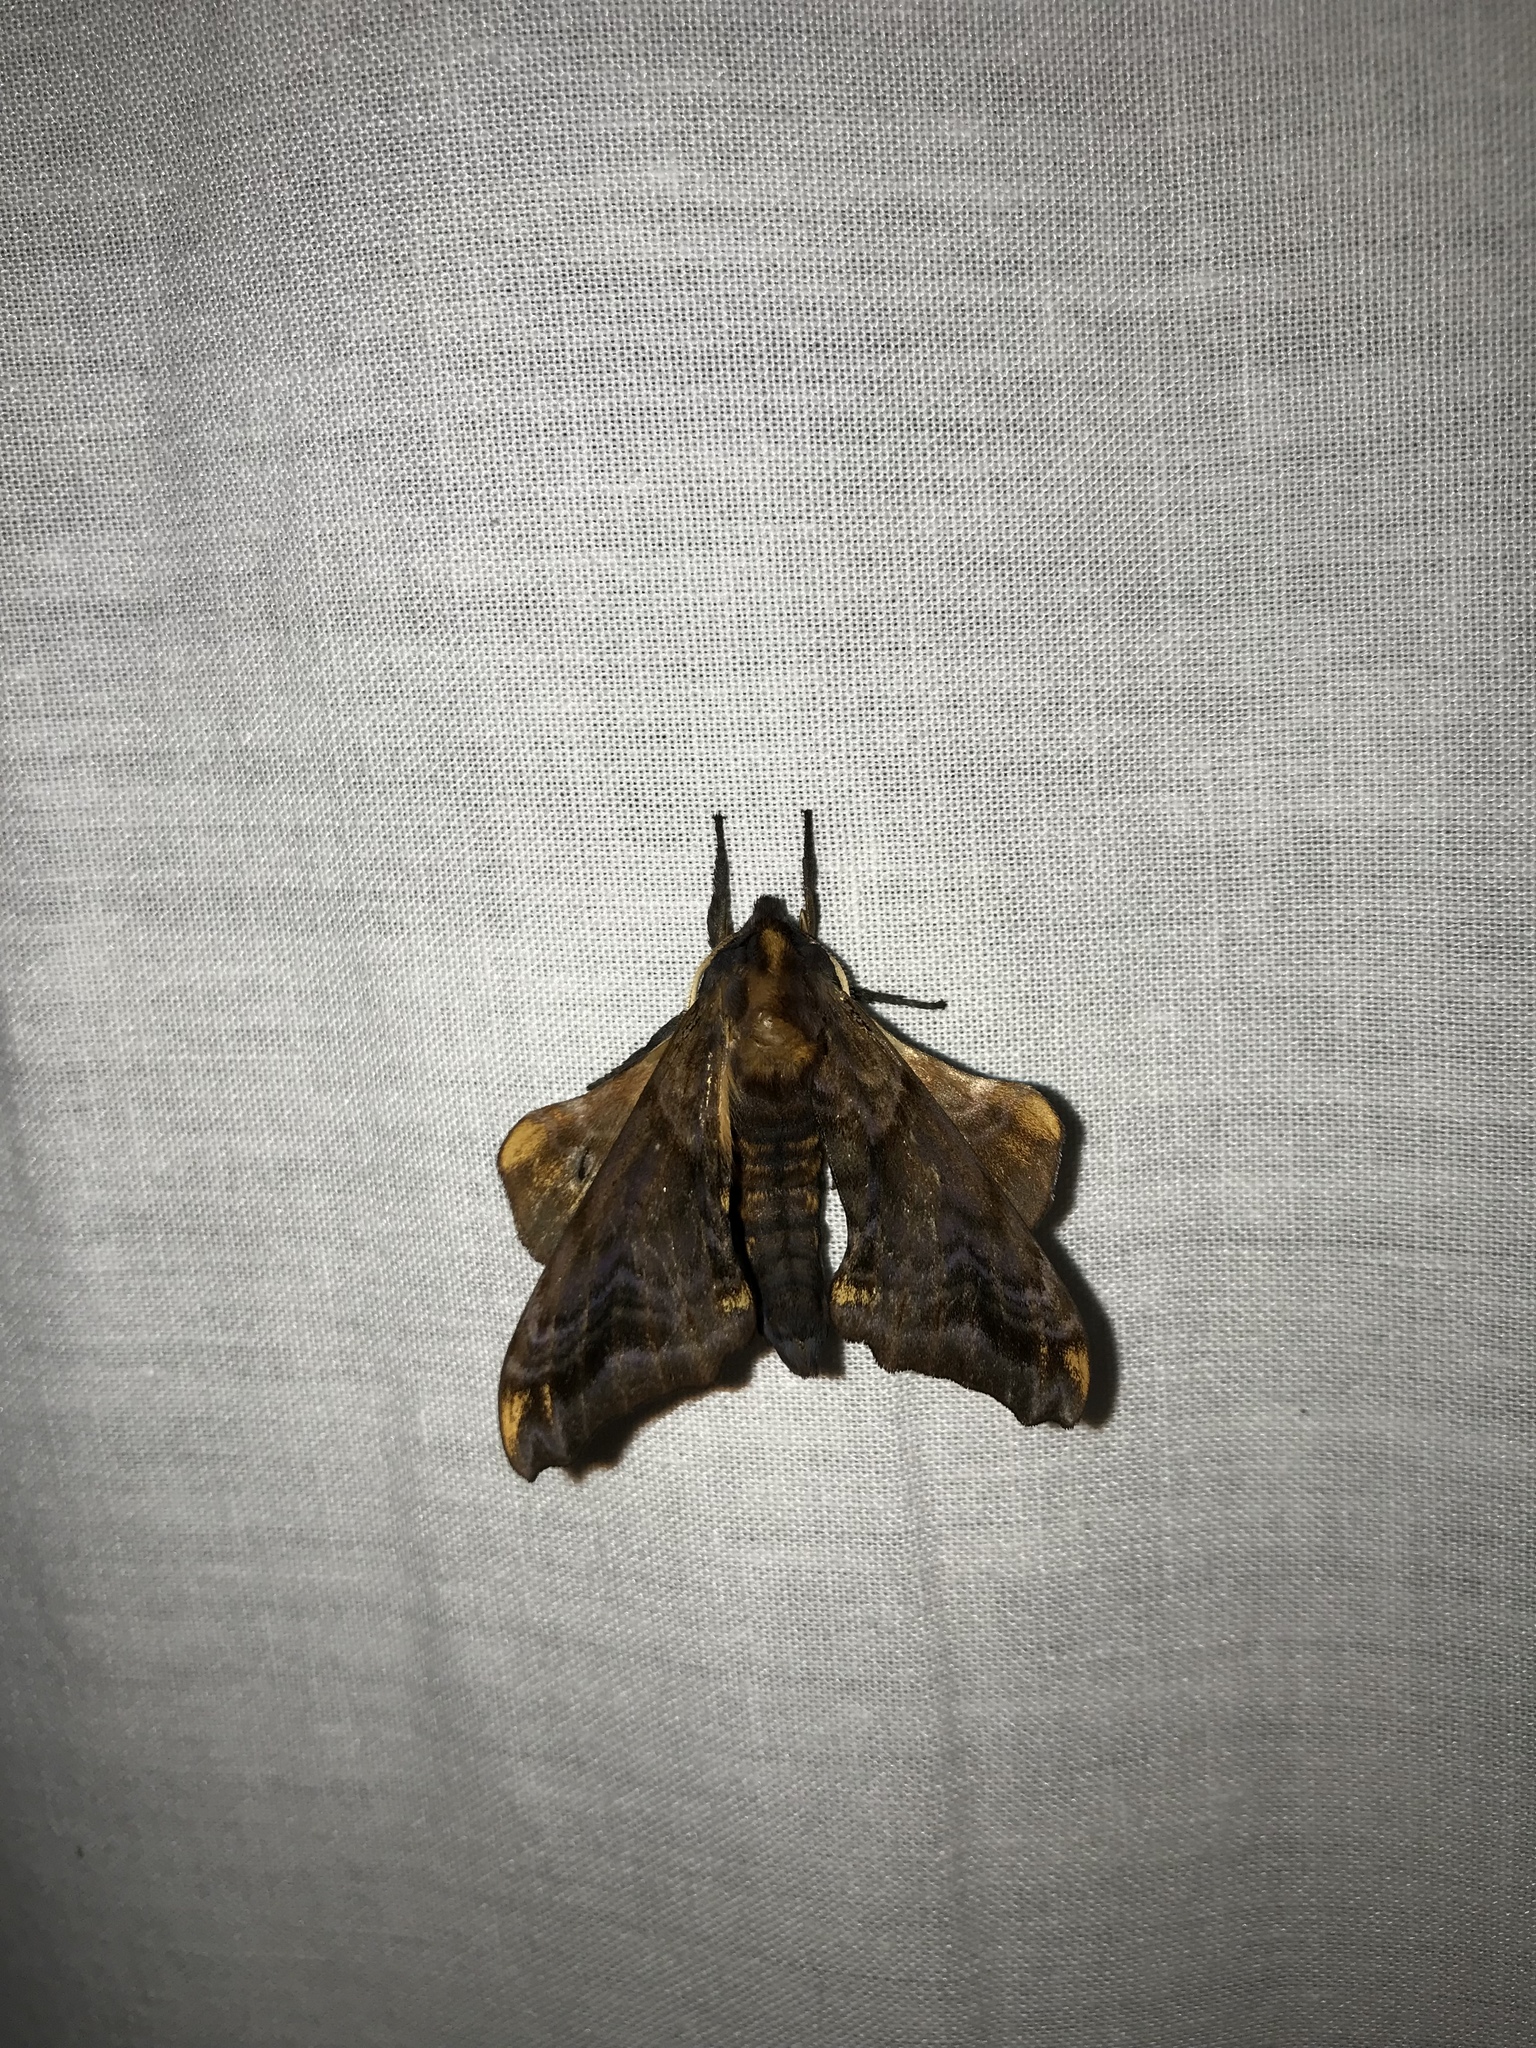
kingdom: Animalia
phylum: Arthropoda
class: Insecta
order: Lepidoptera
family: Sphingidae
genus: Paonias
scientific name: Paonias myops
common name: Small-eyed sphinx
